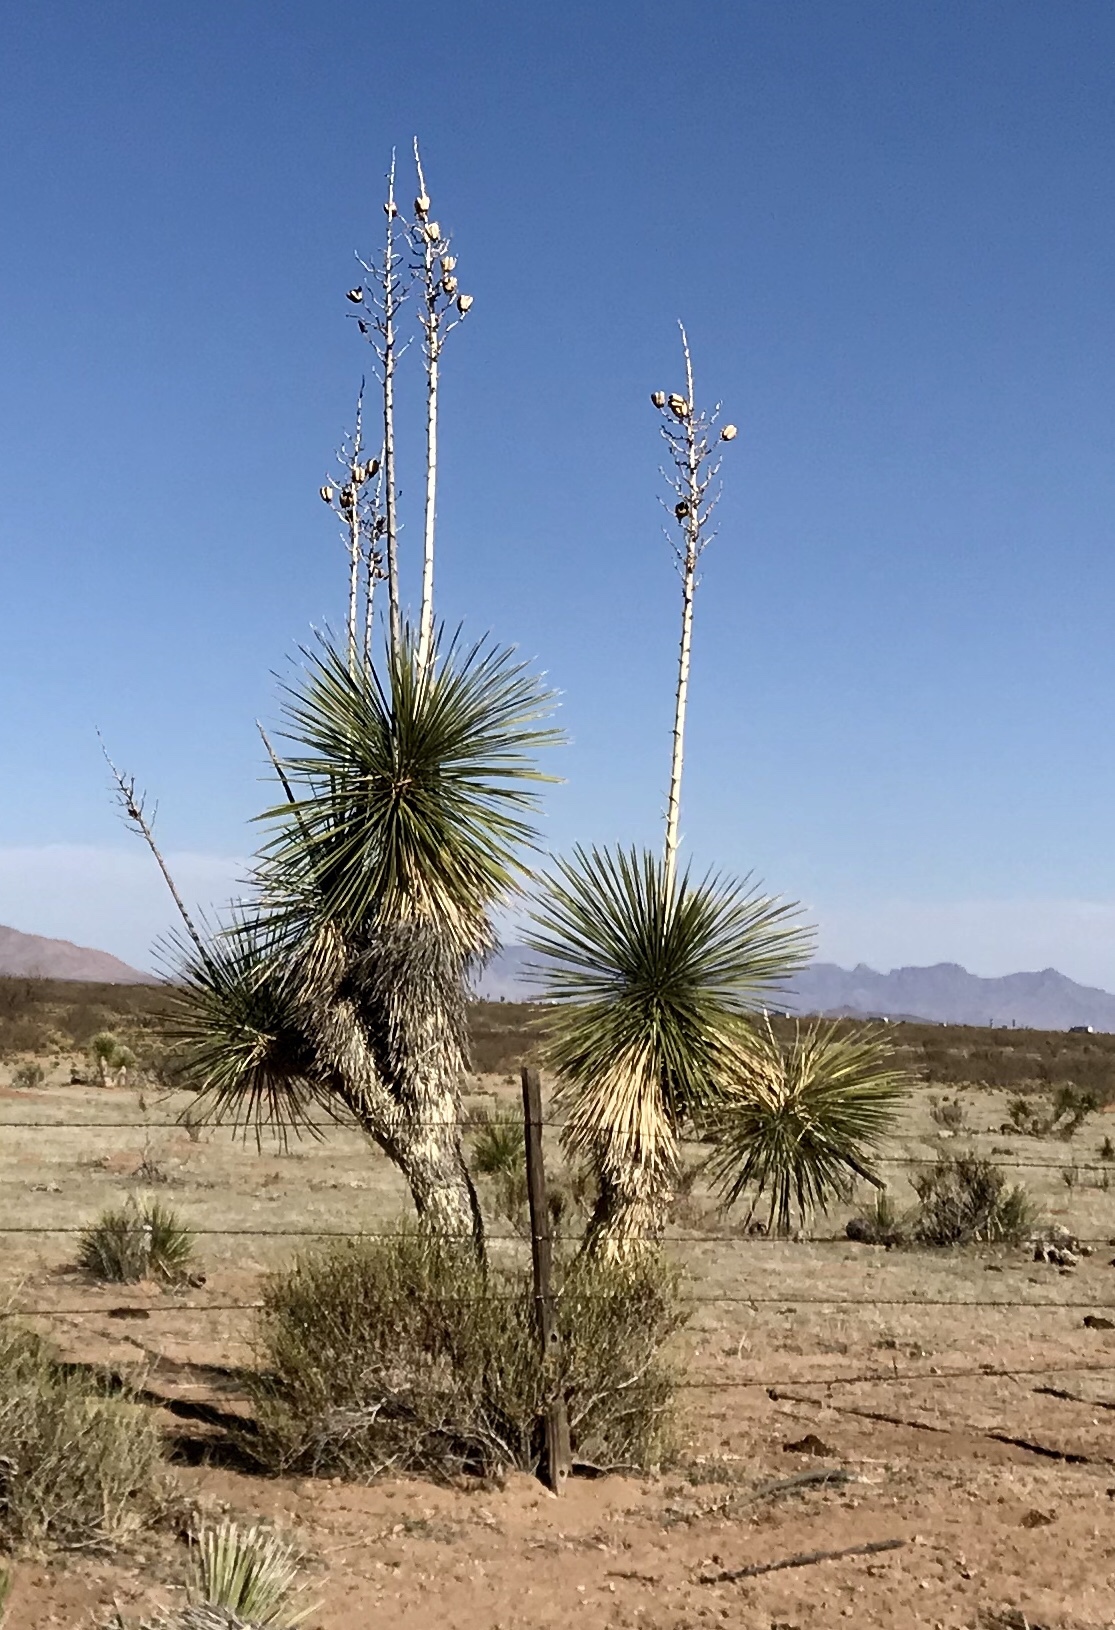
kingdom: Plantae
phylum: Tracheophyta
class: Liliopsida
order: Asparagales
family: Asparagaceae
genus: Yucca
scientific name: Yucca elata
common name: Palmella
